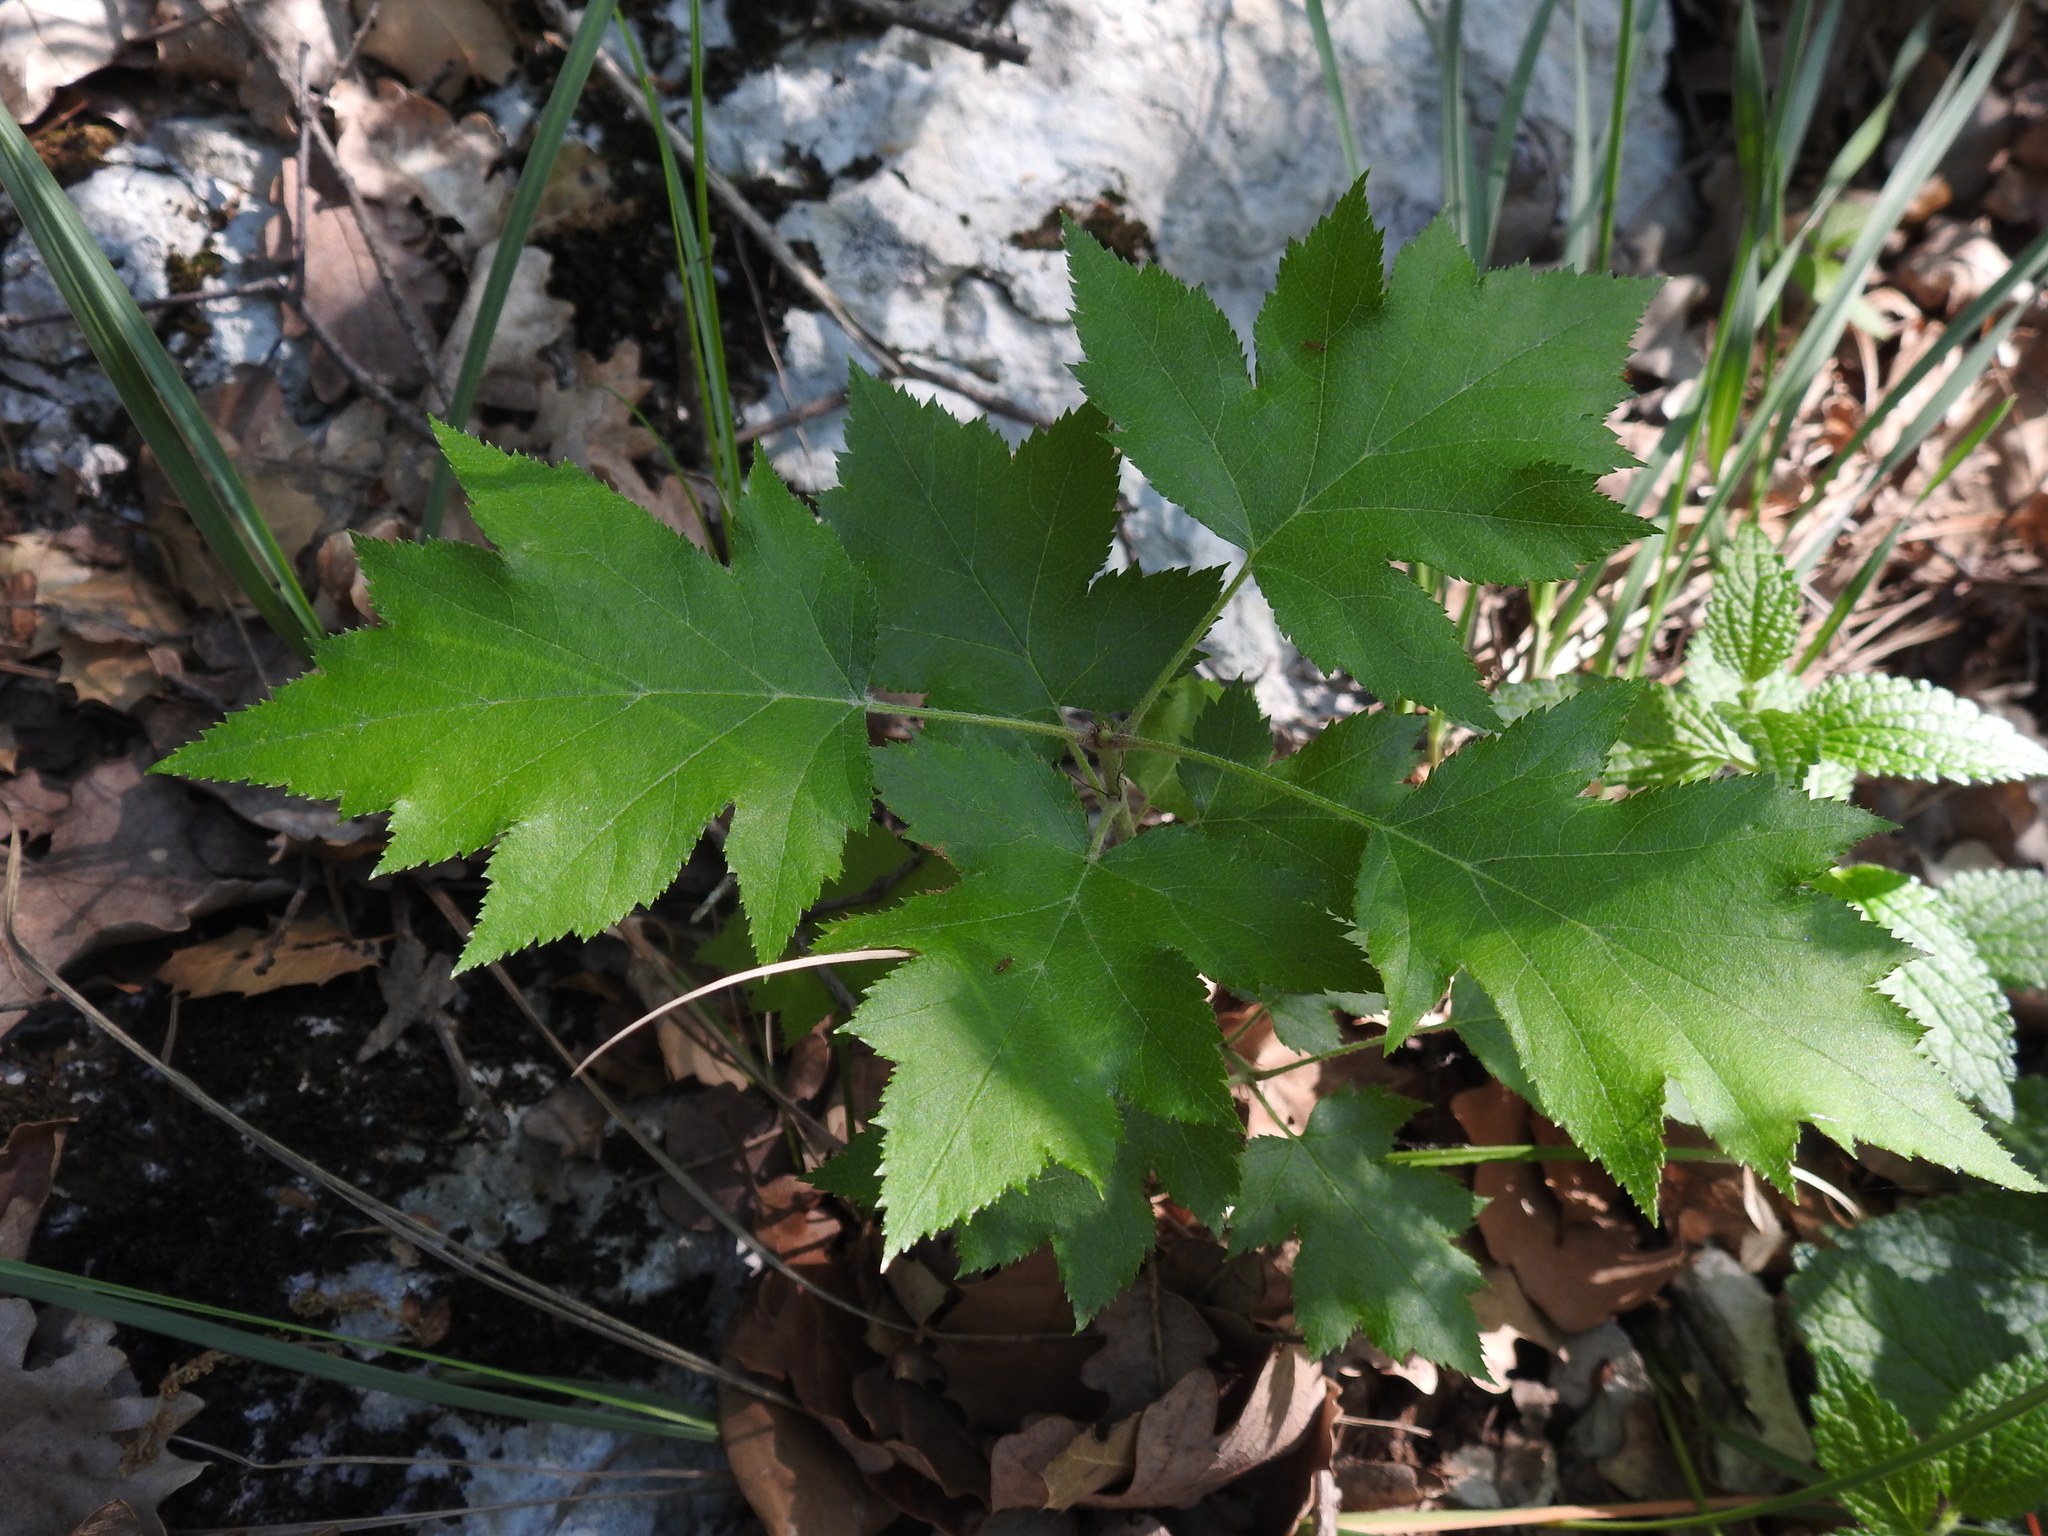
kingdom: Plantae
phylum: Tracheophyta
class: Magnoliopsida
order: Rosales
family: Rosaceae
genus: Torminalis
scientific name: Torminalis glaberrima
